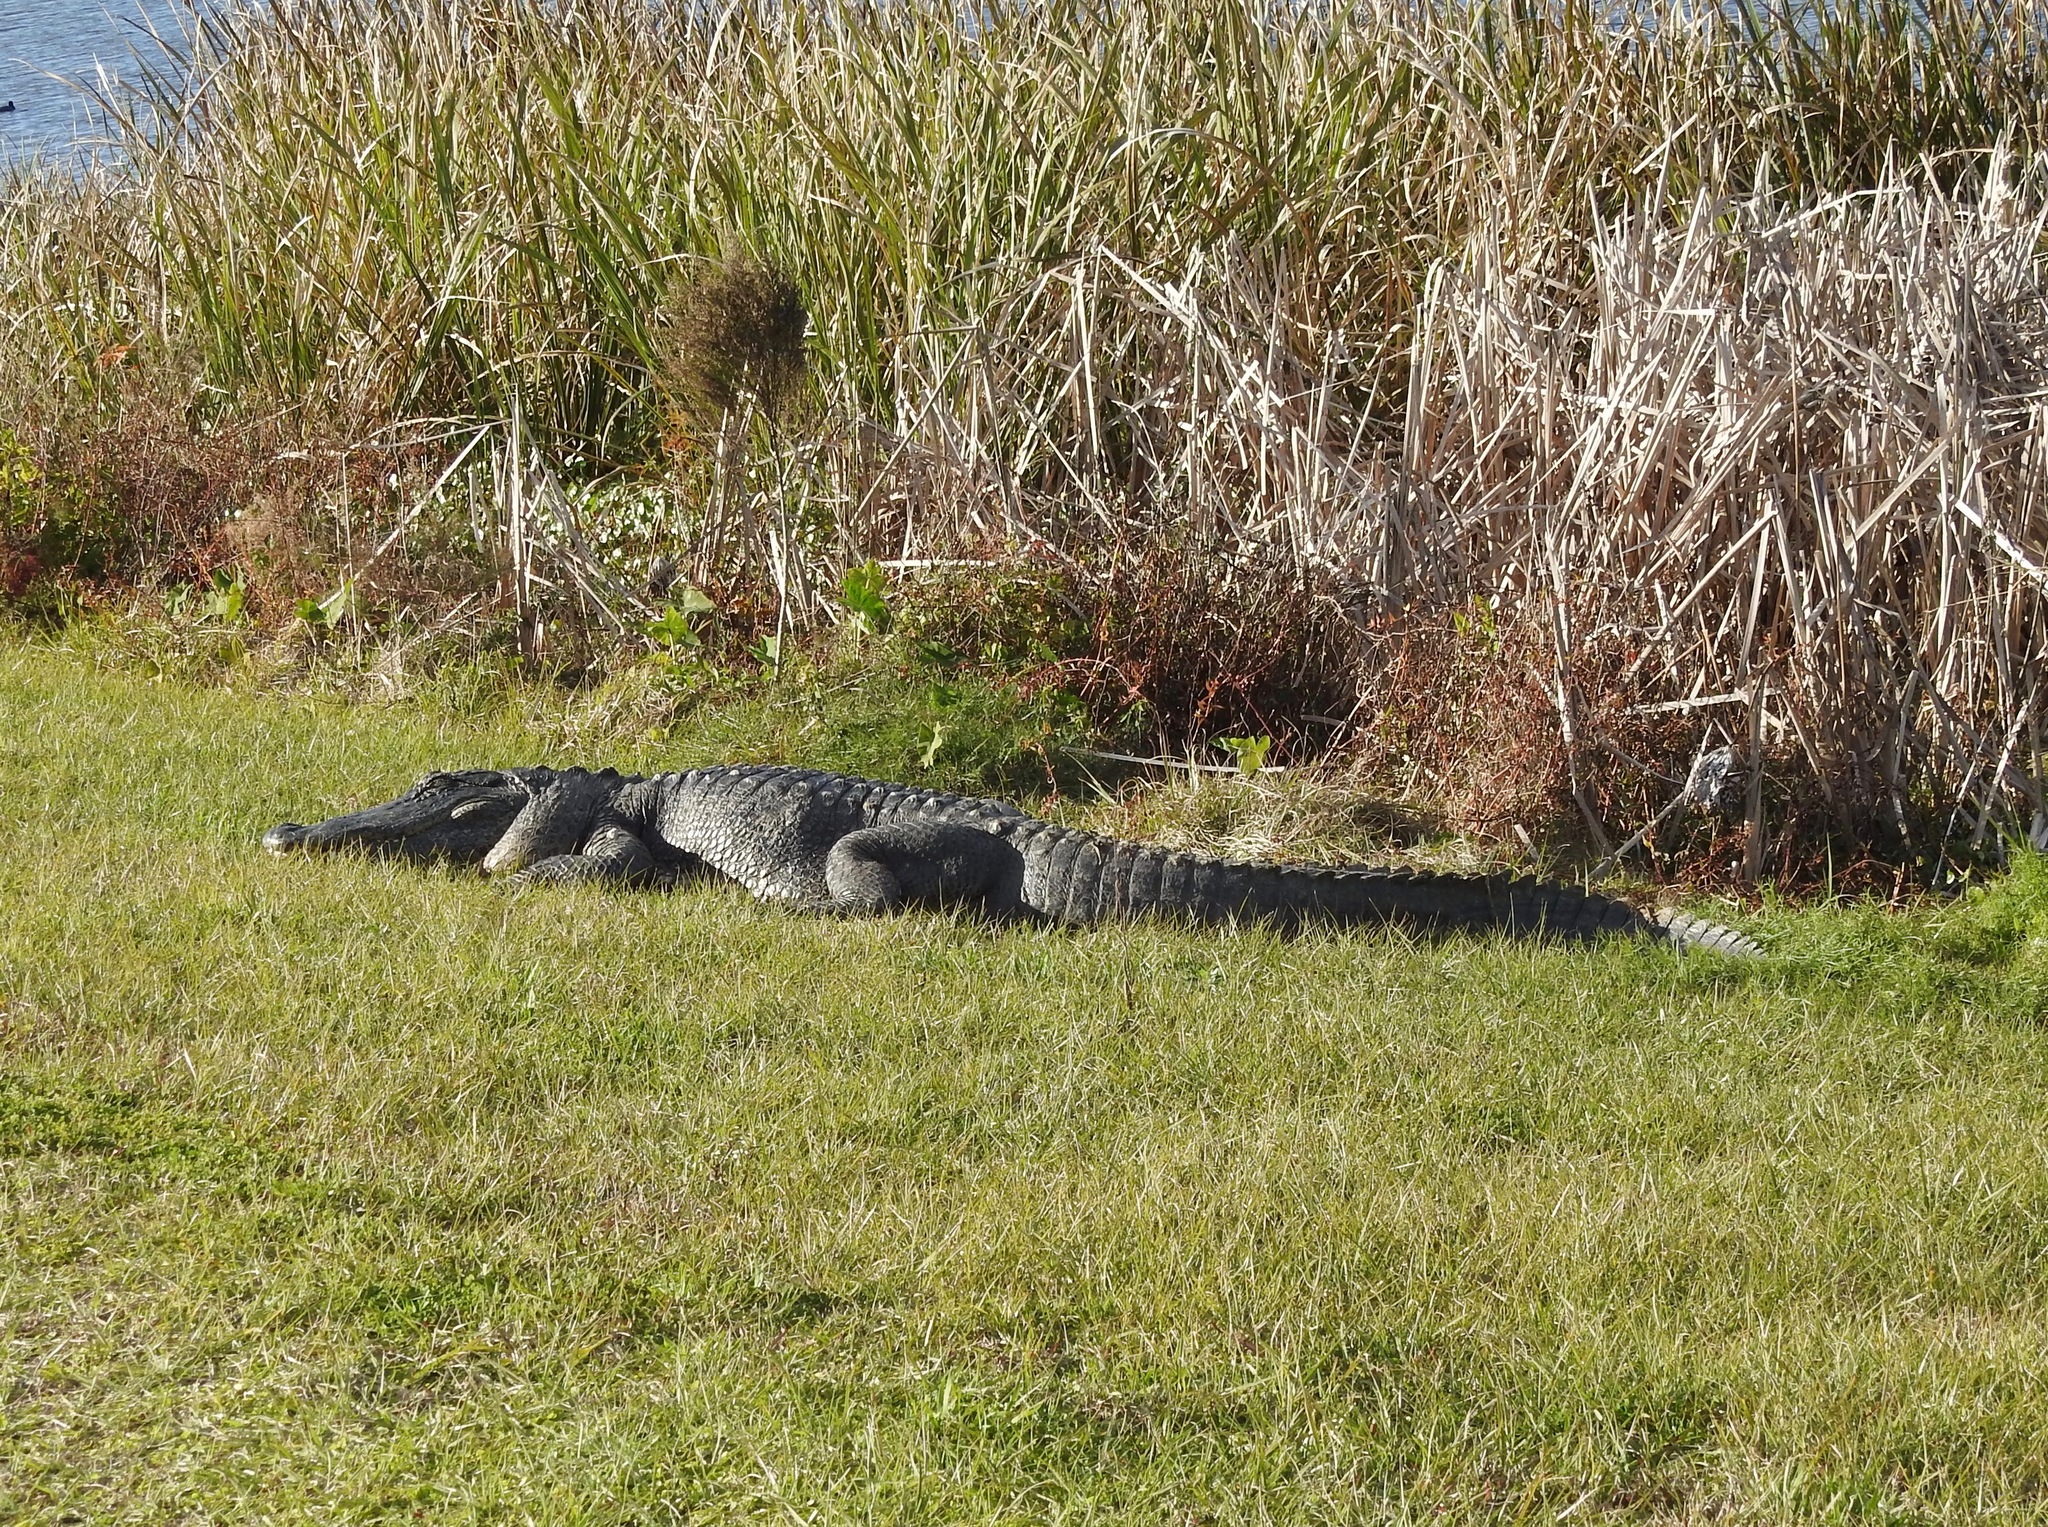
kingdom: Animalia
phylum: Chordata
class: Crocodylia
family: Alligatoridae
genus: Alligator
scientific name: Alligator mississippiensis
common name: American alligator
